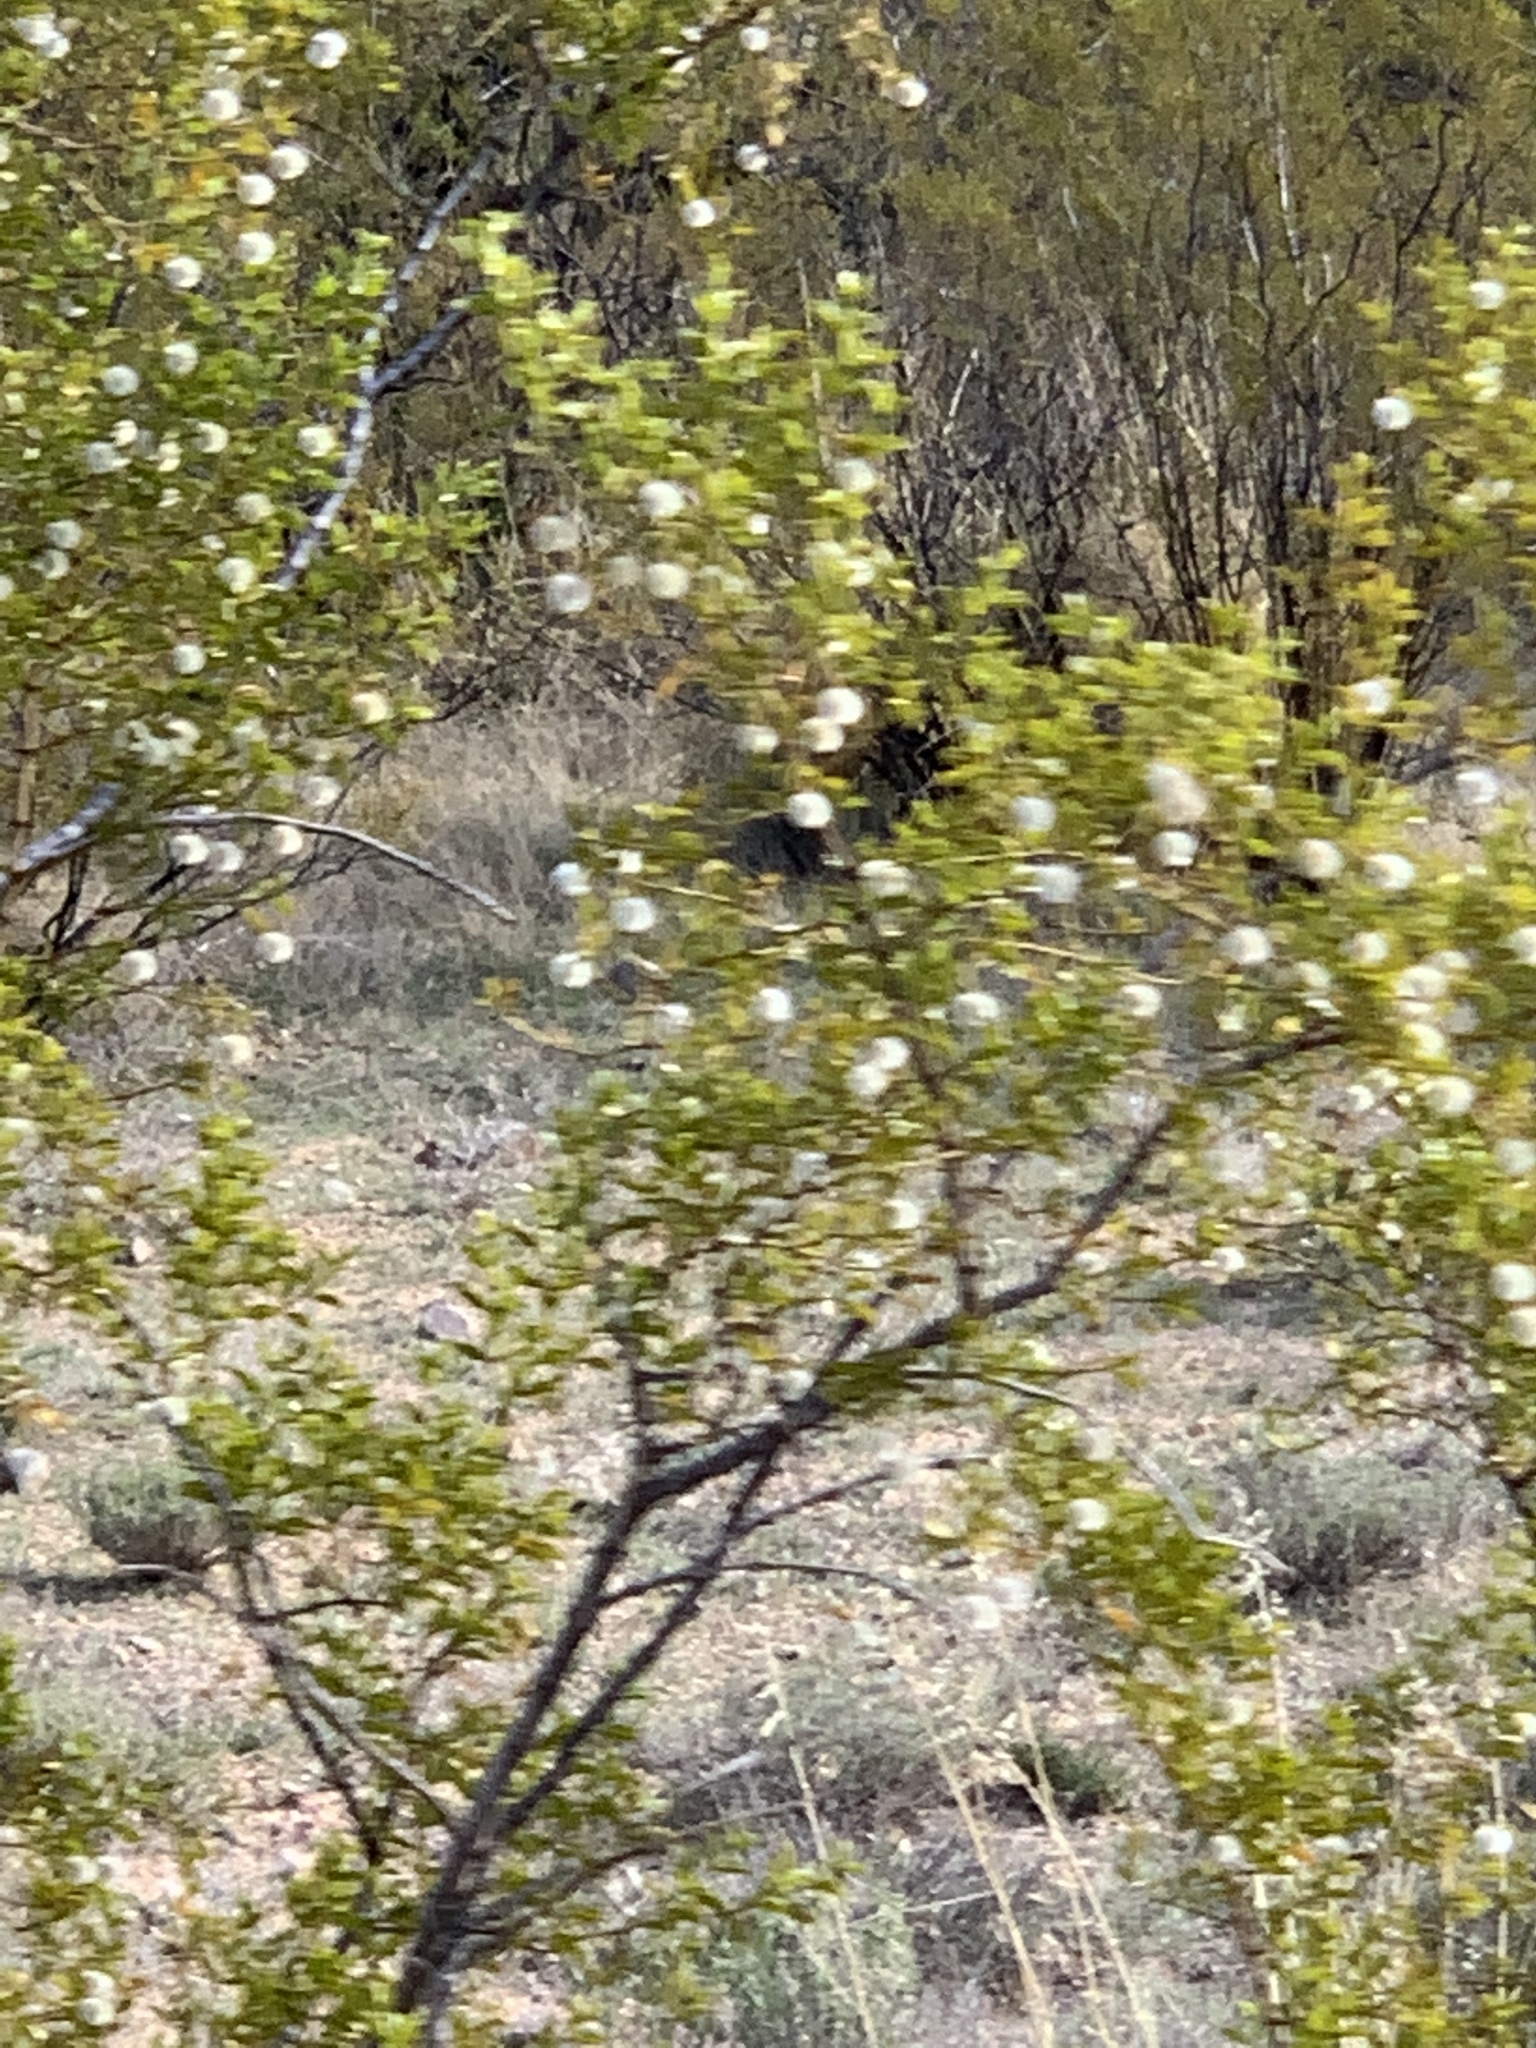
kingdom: Plantae
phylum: Tracheophyta
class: Magnoliopsida
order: Zygophyllales
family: Zygophyllaceae
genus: Larrea
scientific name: Larrea tridentata
